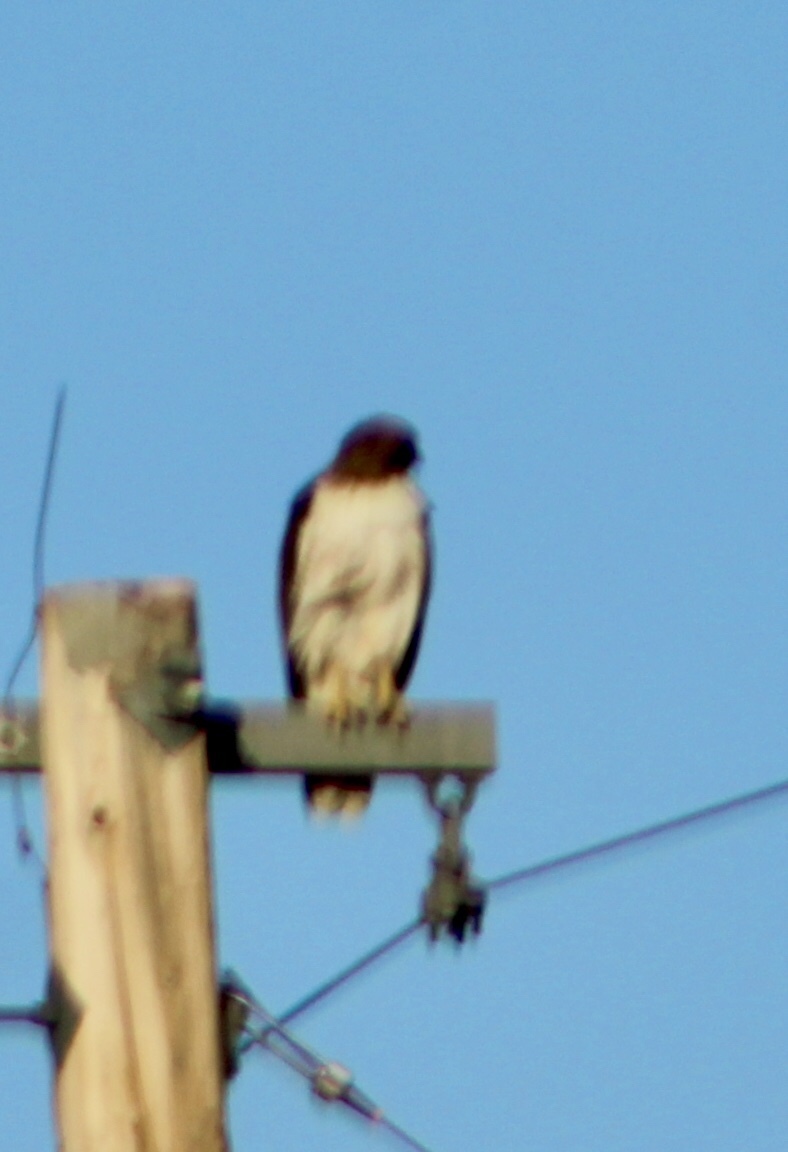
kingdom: Animalia
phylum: Chordata
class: Aves
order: Accipitriformes
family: Accipitridae
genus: Buteo
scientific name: Buteo jamaicensis
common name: Red-tailed hawk
